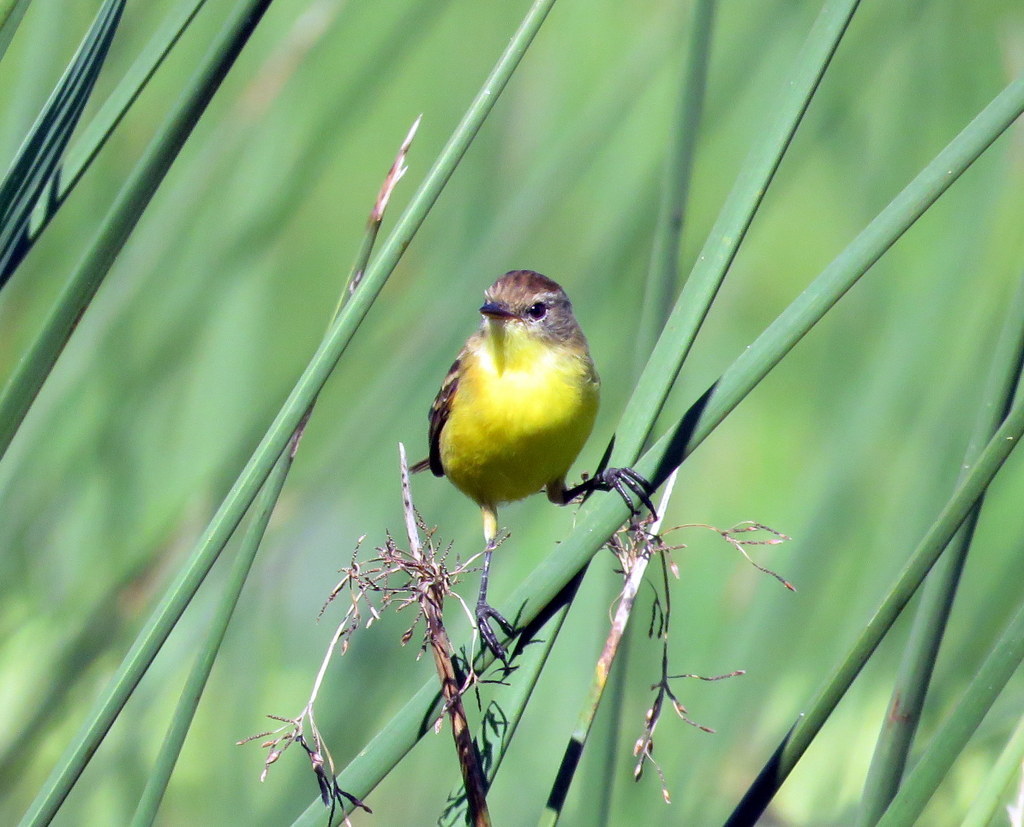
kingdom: Animalia
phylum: Chordata
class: Aves
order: Passeriformes
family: Tyrannidae
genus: Pseudocolopteryx
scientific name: Pseudocolopteryx flaviventris
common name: Warbling doradito
